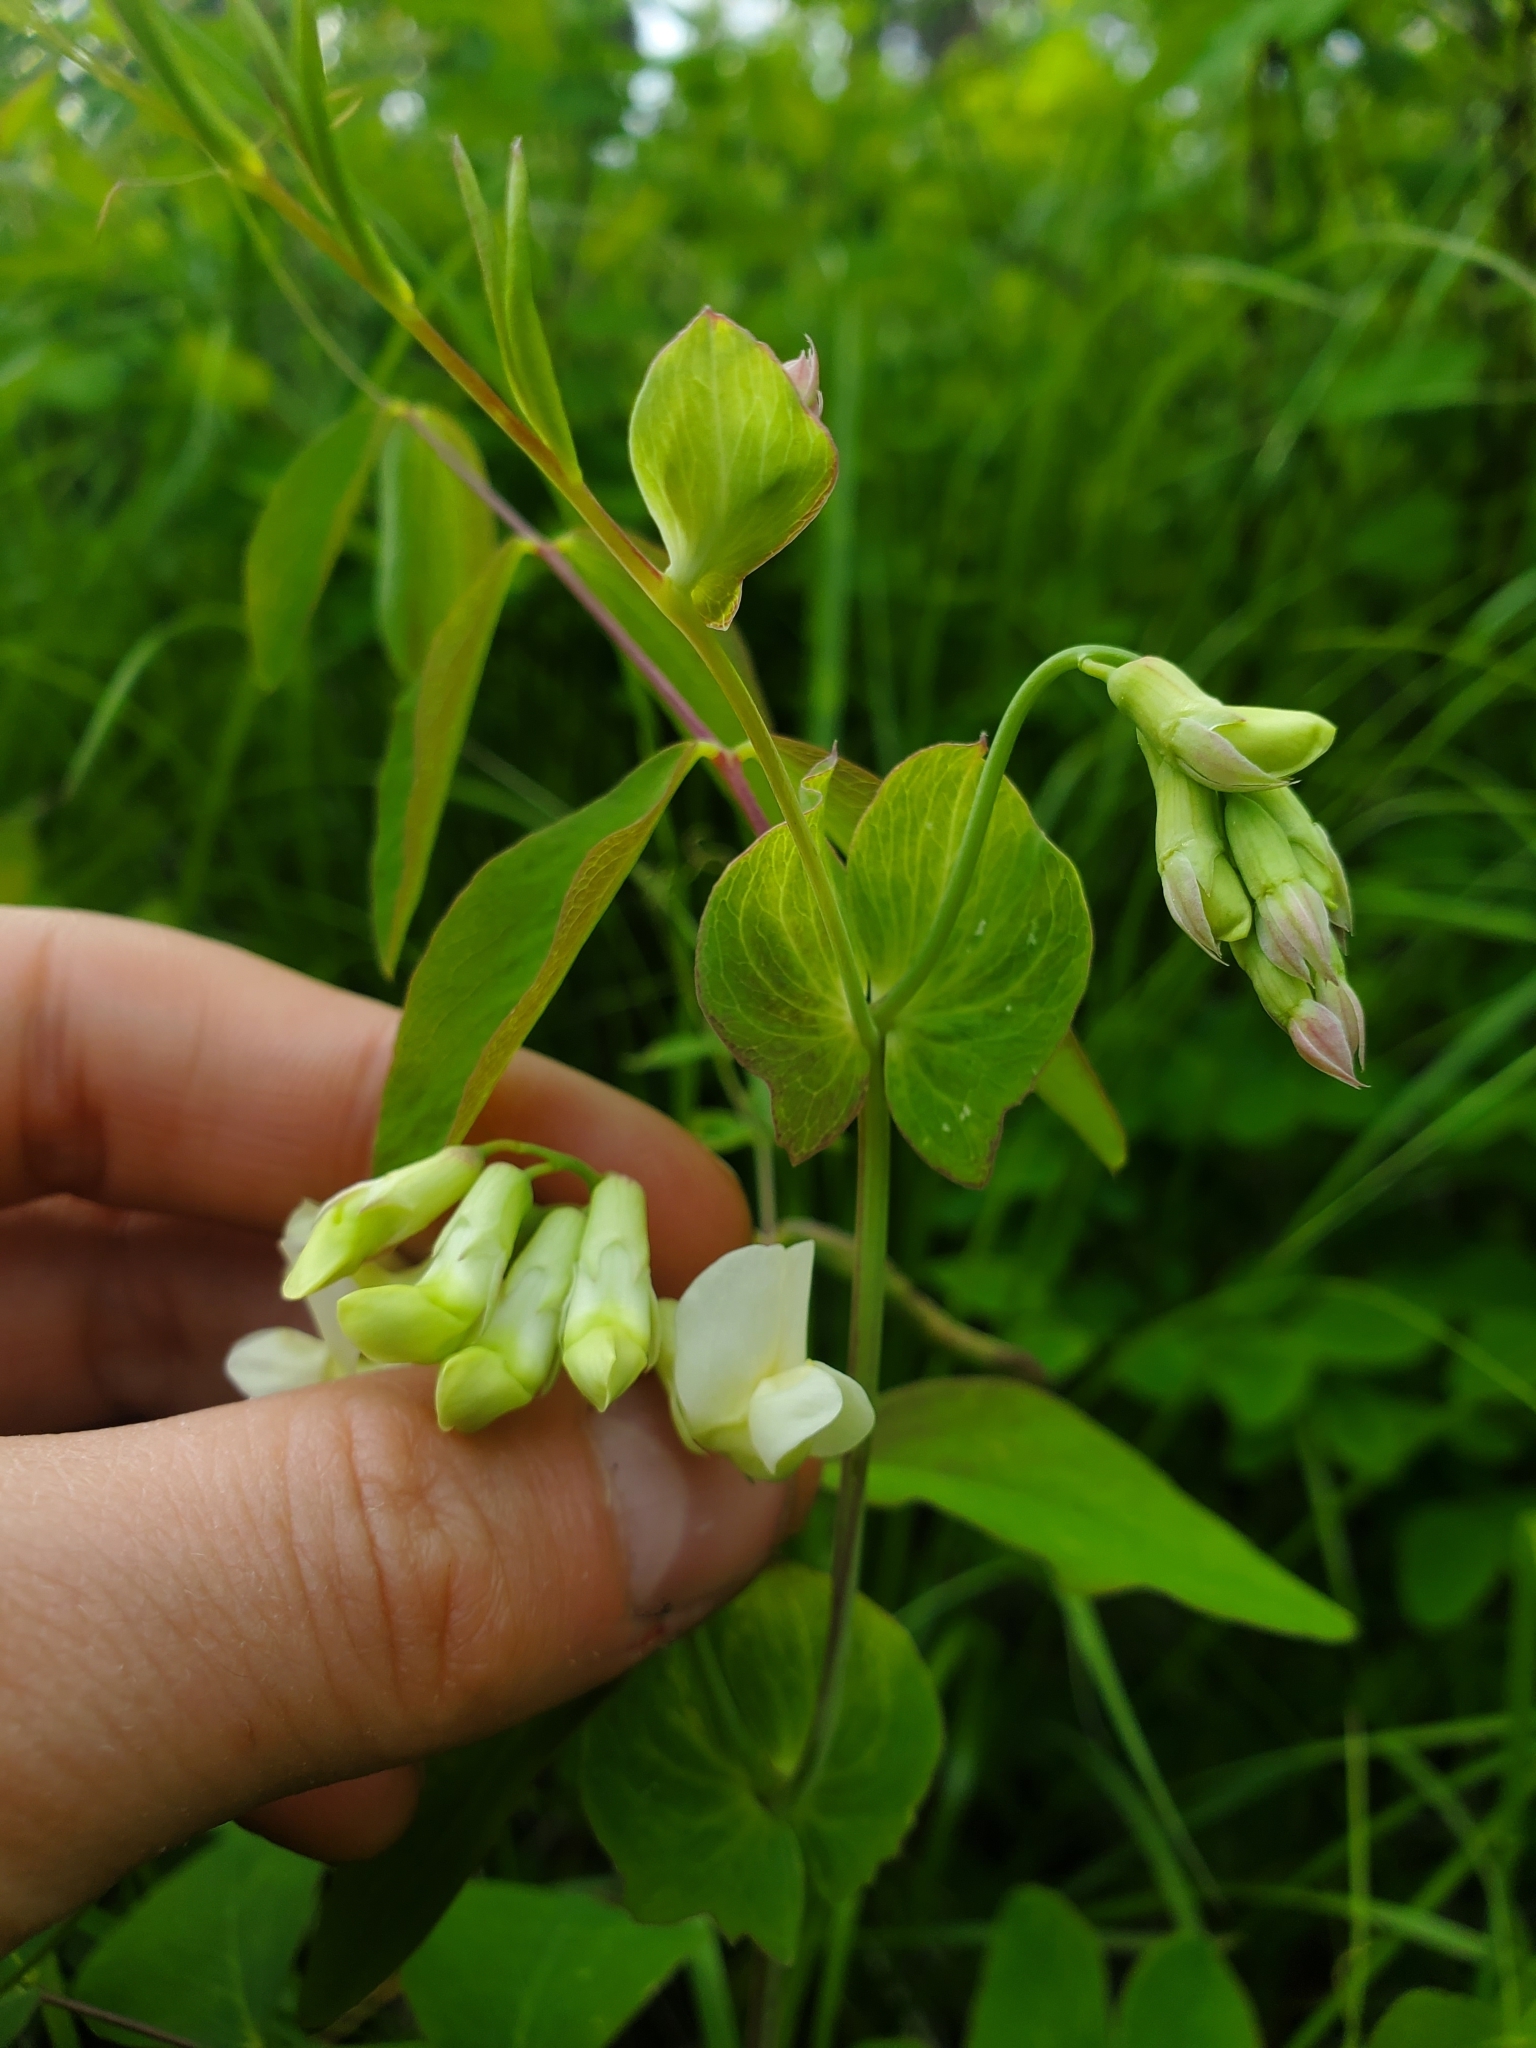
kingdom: Plantae
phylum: Tracheophyta
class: Magnoliopsida
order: Fabales
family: Fabaceae
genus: Lathyrus
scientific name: Lathyrus ochroleucus
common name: Pale vetchling
